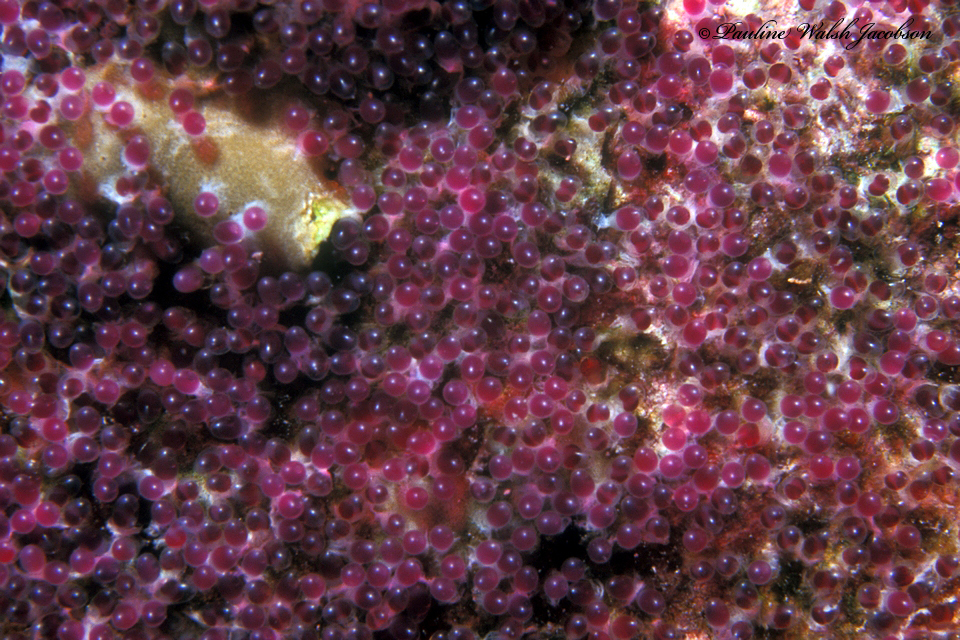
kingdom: Animalia
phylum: Chordata
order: Perciformes
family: Pomacentridae
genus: Abudefduf
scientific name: Abudefduf saxatilis
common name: Sergeant major
